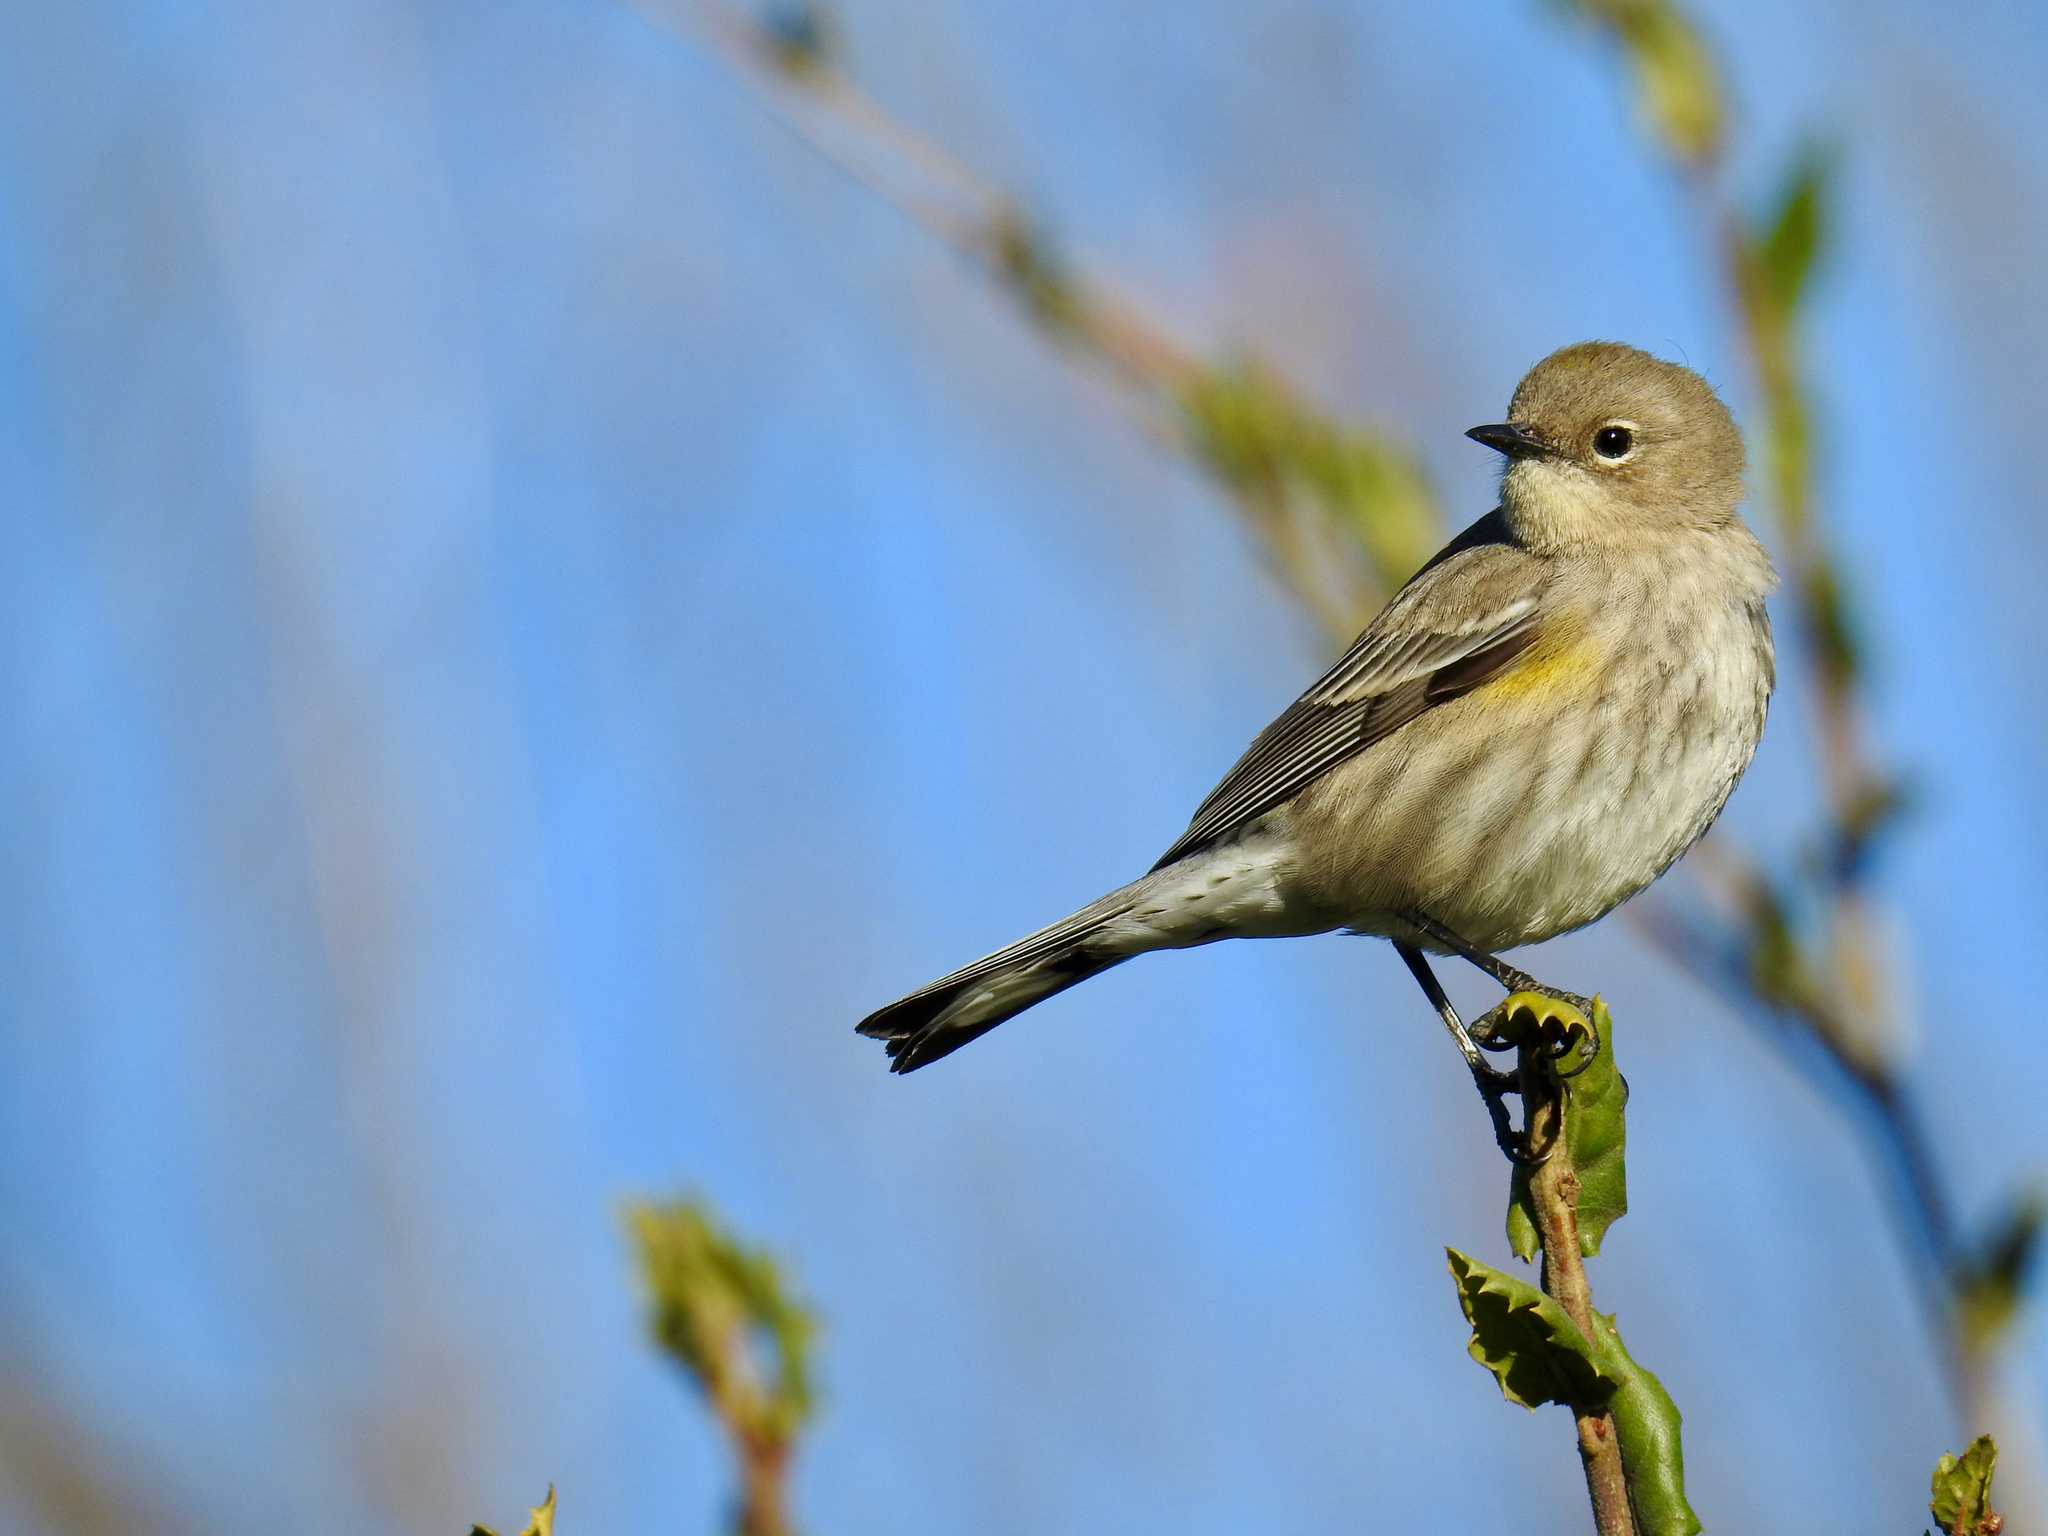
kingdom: Animalia
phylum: Chordata
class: Aves
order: Passeriformes
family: Parulidae
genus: Setophaga
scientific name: Setophaga coronata
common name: Myrtle warbler
